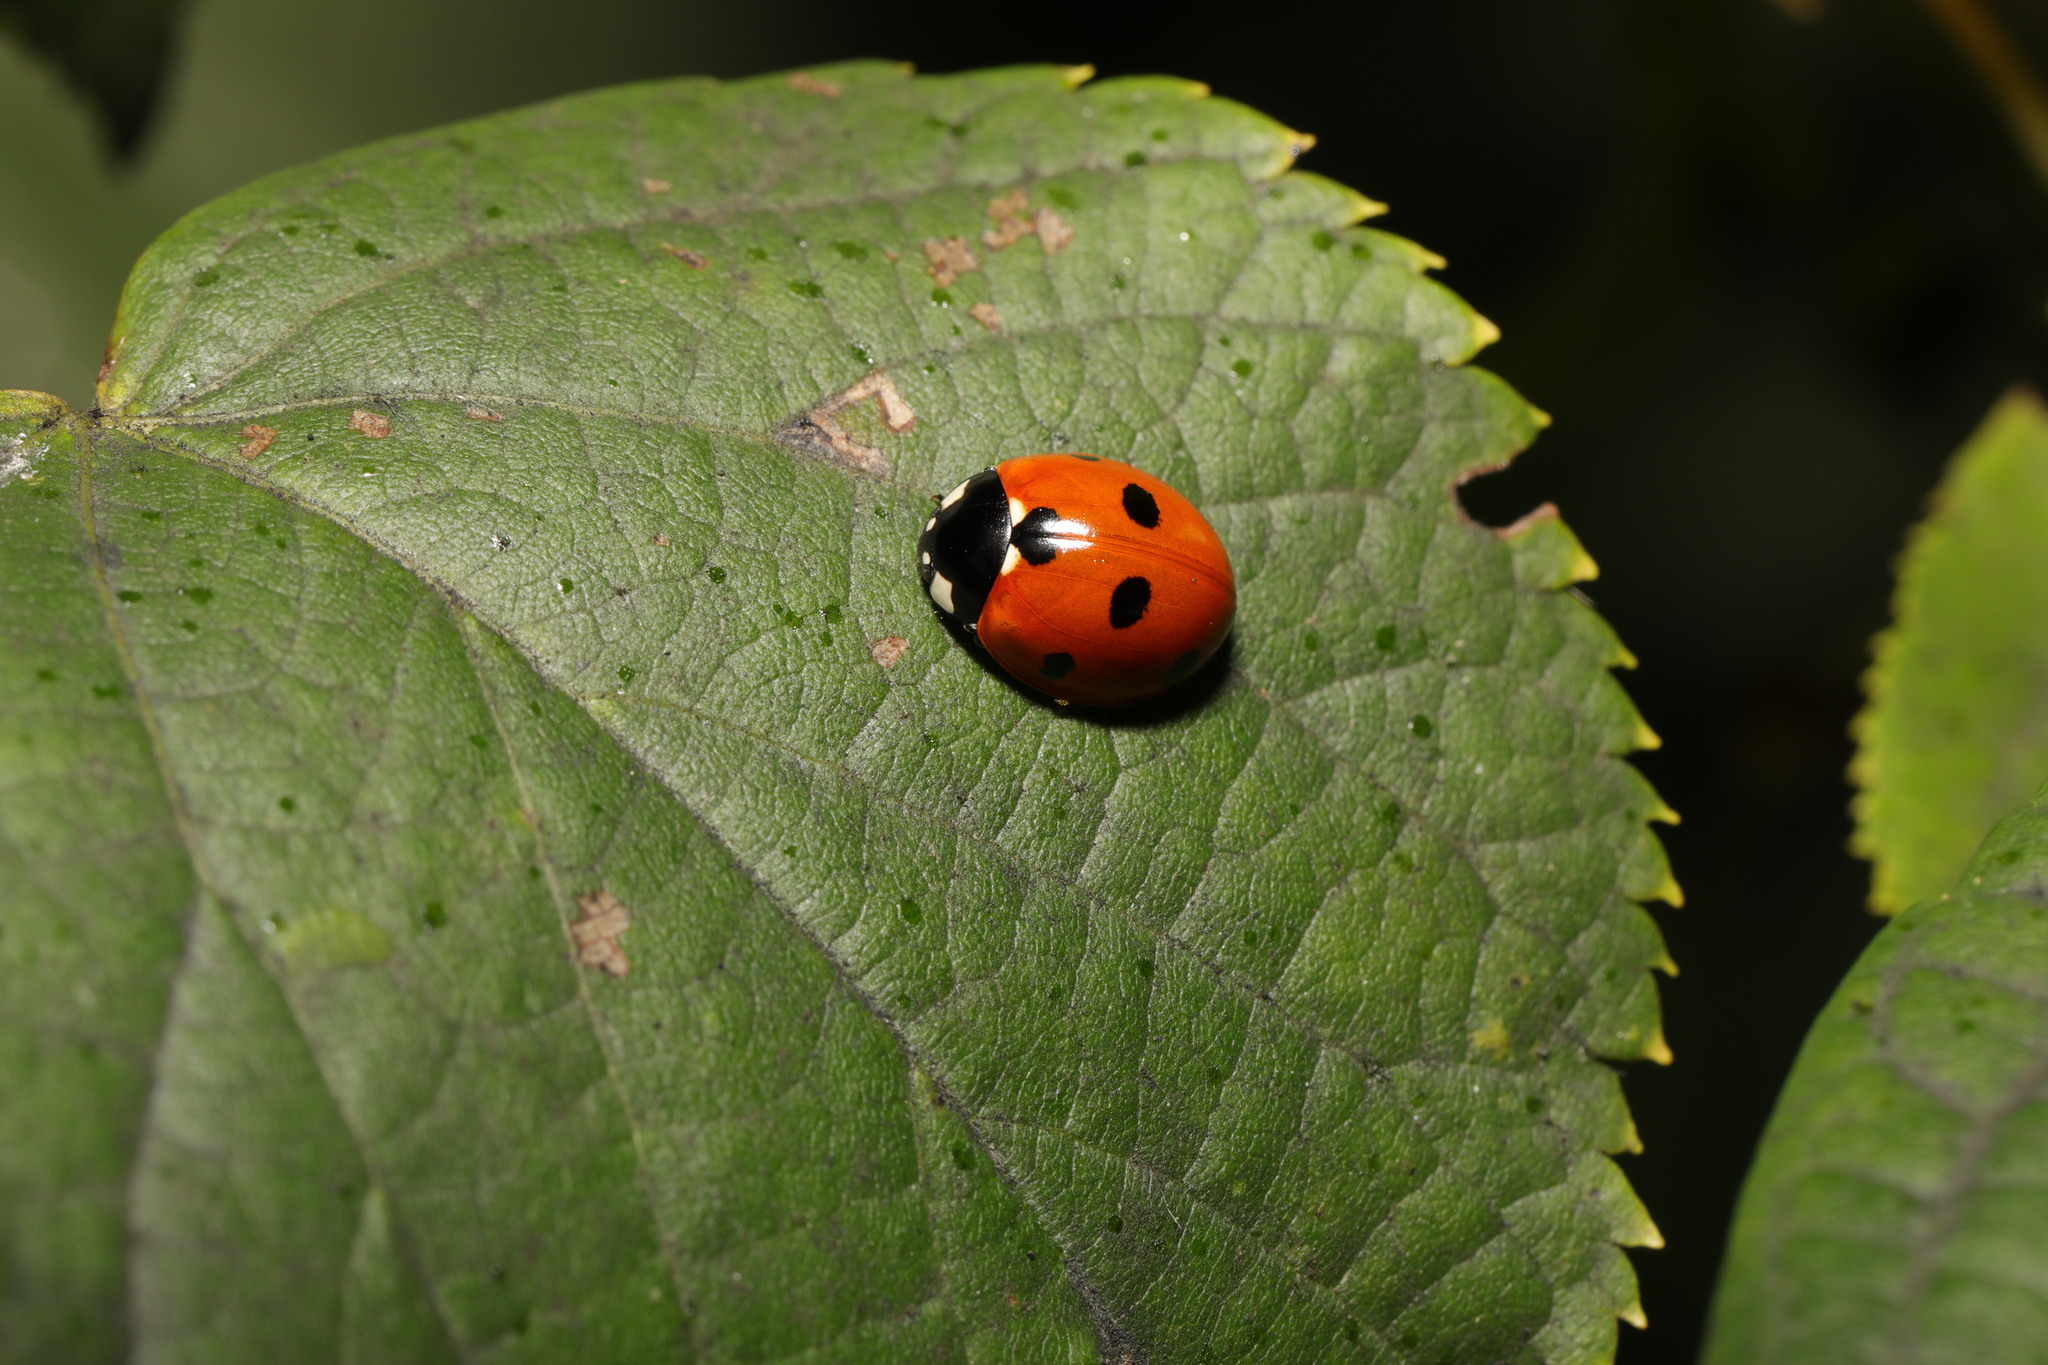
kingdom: Animalia
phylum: Arthropoda
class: Insecta
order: Coleoptera
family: Coccinellidae
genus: Coccinella
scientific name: Coccinella septempunctata
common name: Sevenspotted lady beetle
